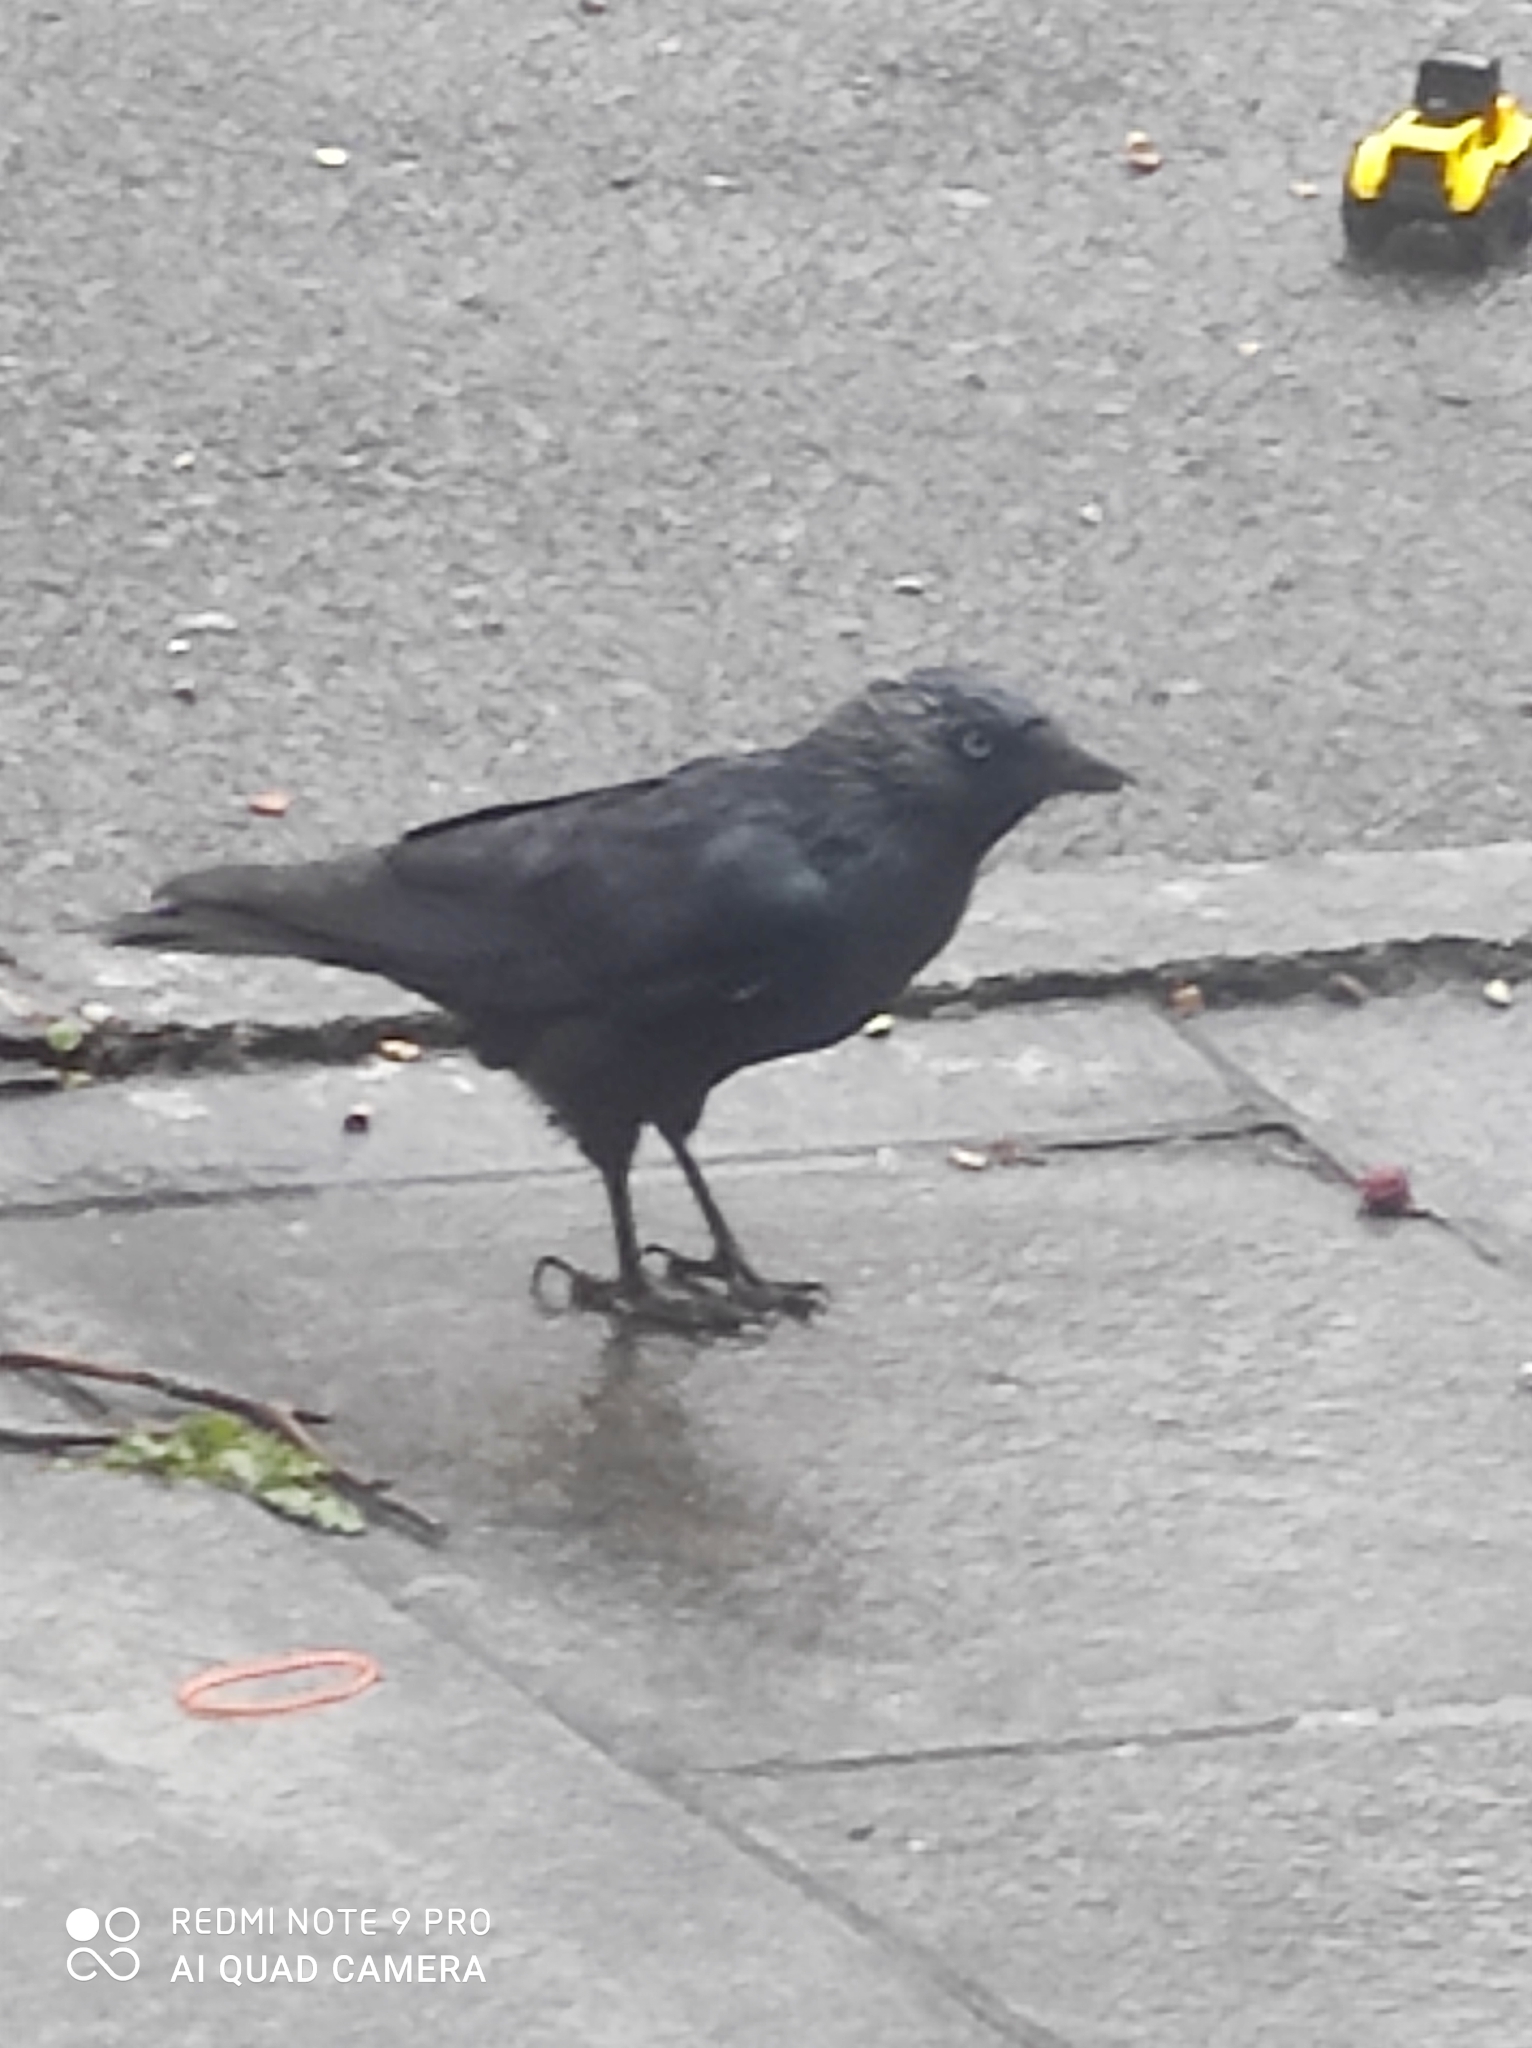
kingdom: Animalia
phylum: Chordata
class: Aves
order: Passeriformes
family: Corvidae
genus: Coloeus
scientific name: Coloeus monedula
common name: Western jackdaw
